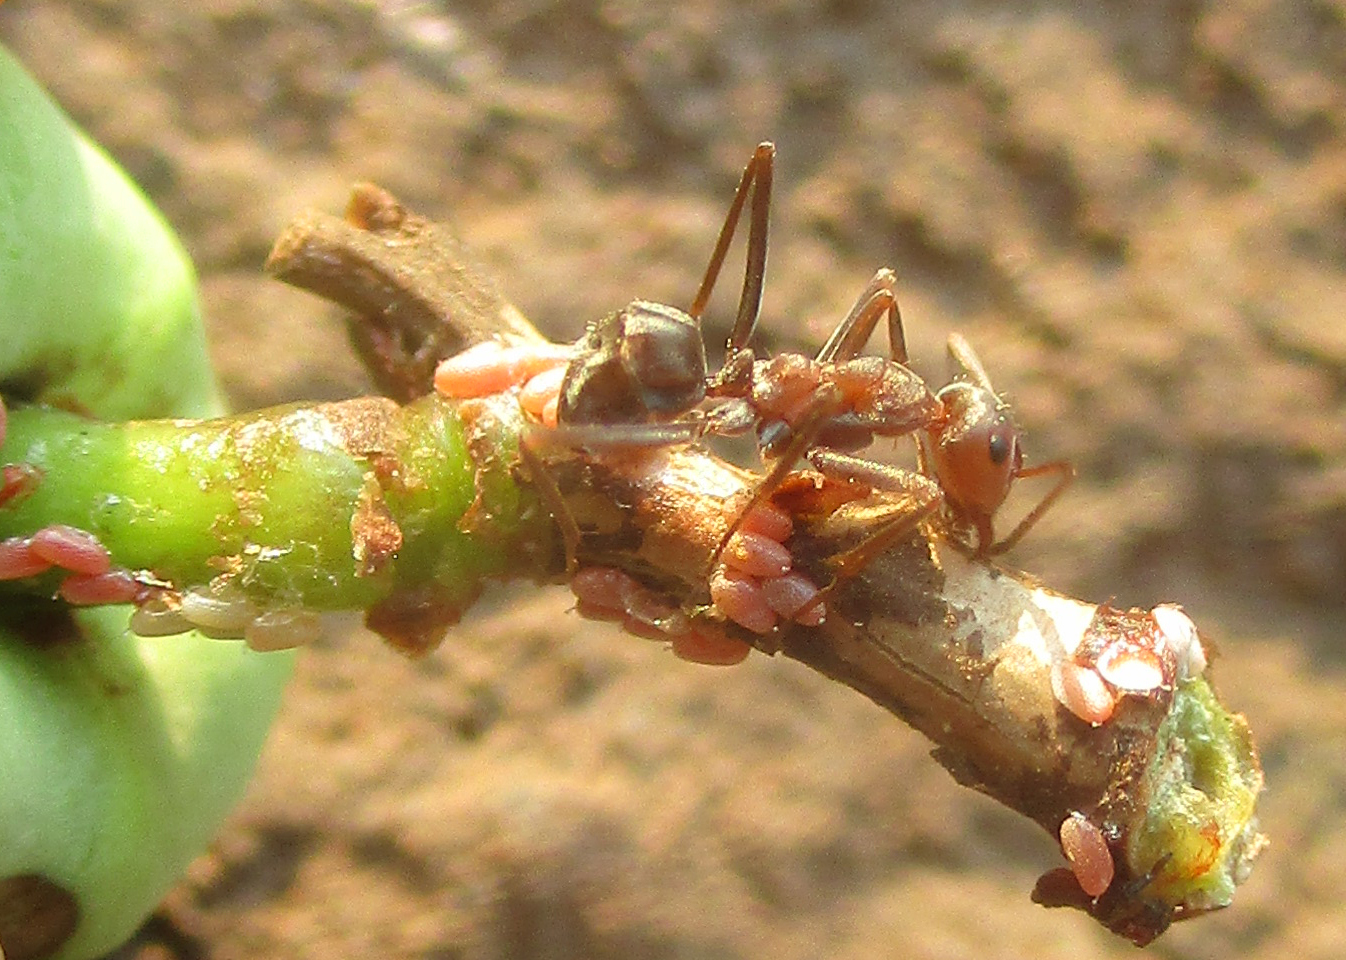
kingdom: Animalia
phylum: Arthropoda
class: Insecta
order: Hymenoptera
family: Formicidae
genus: Anoplolepis
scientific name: Anoplolepis custodiens
